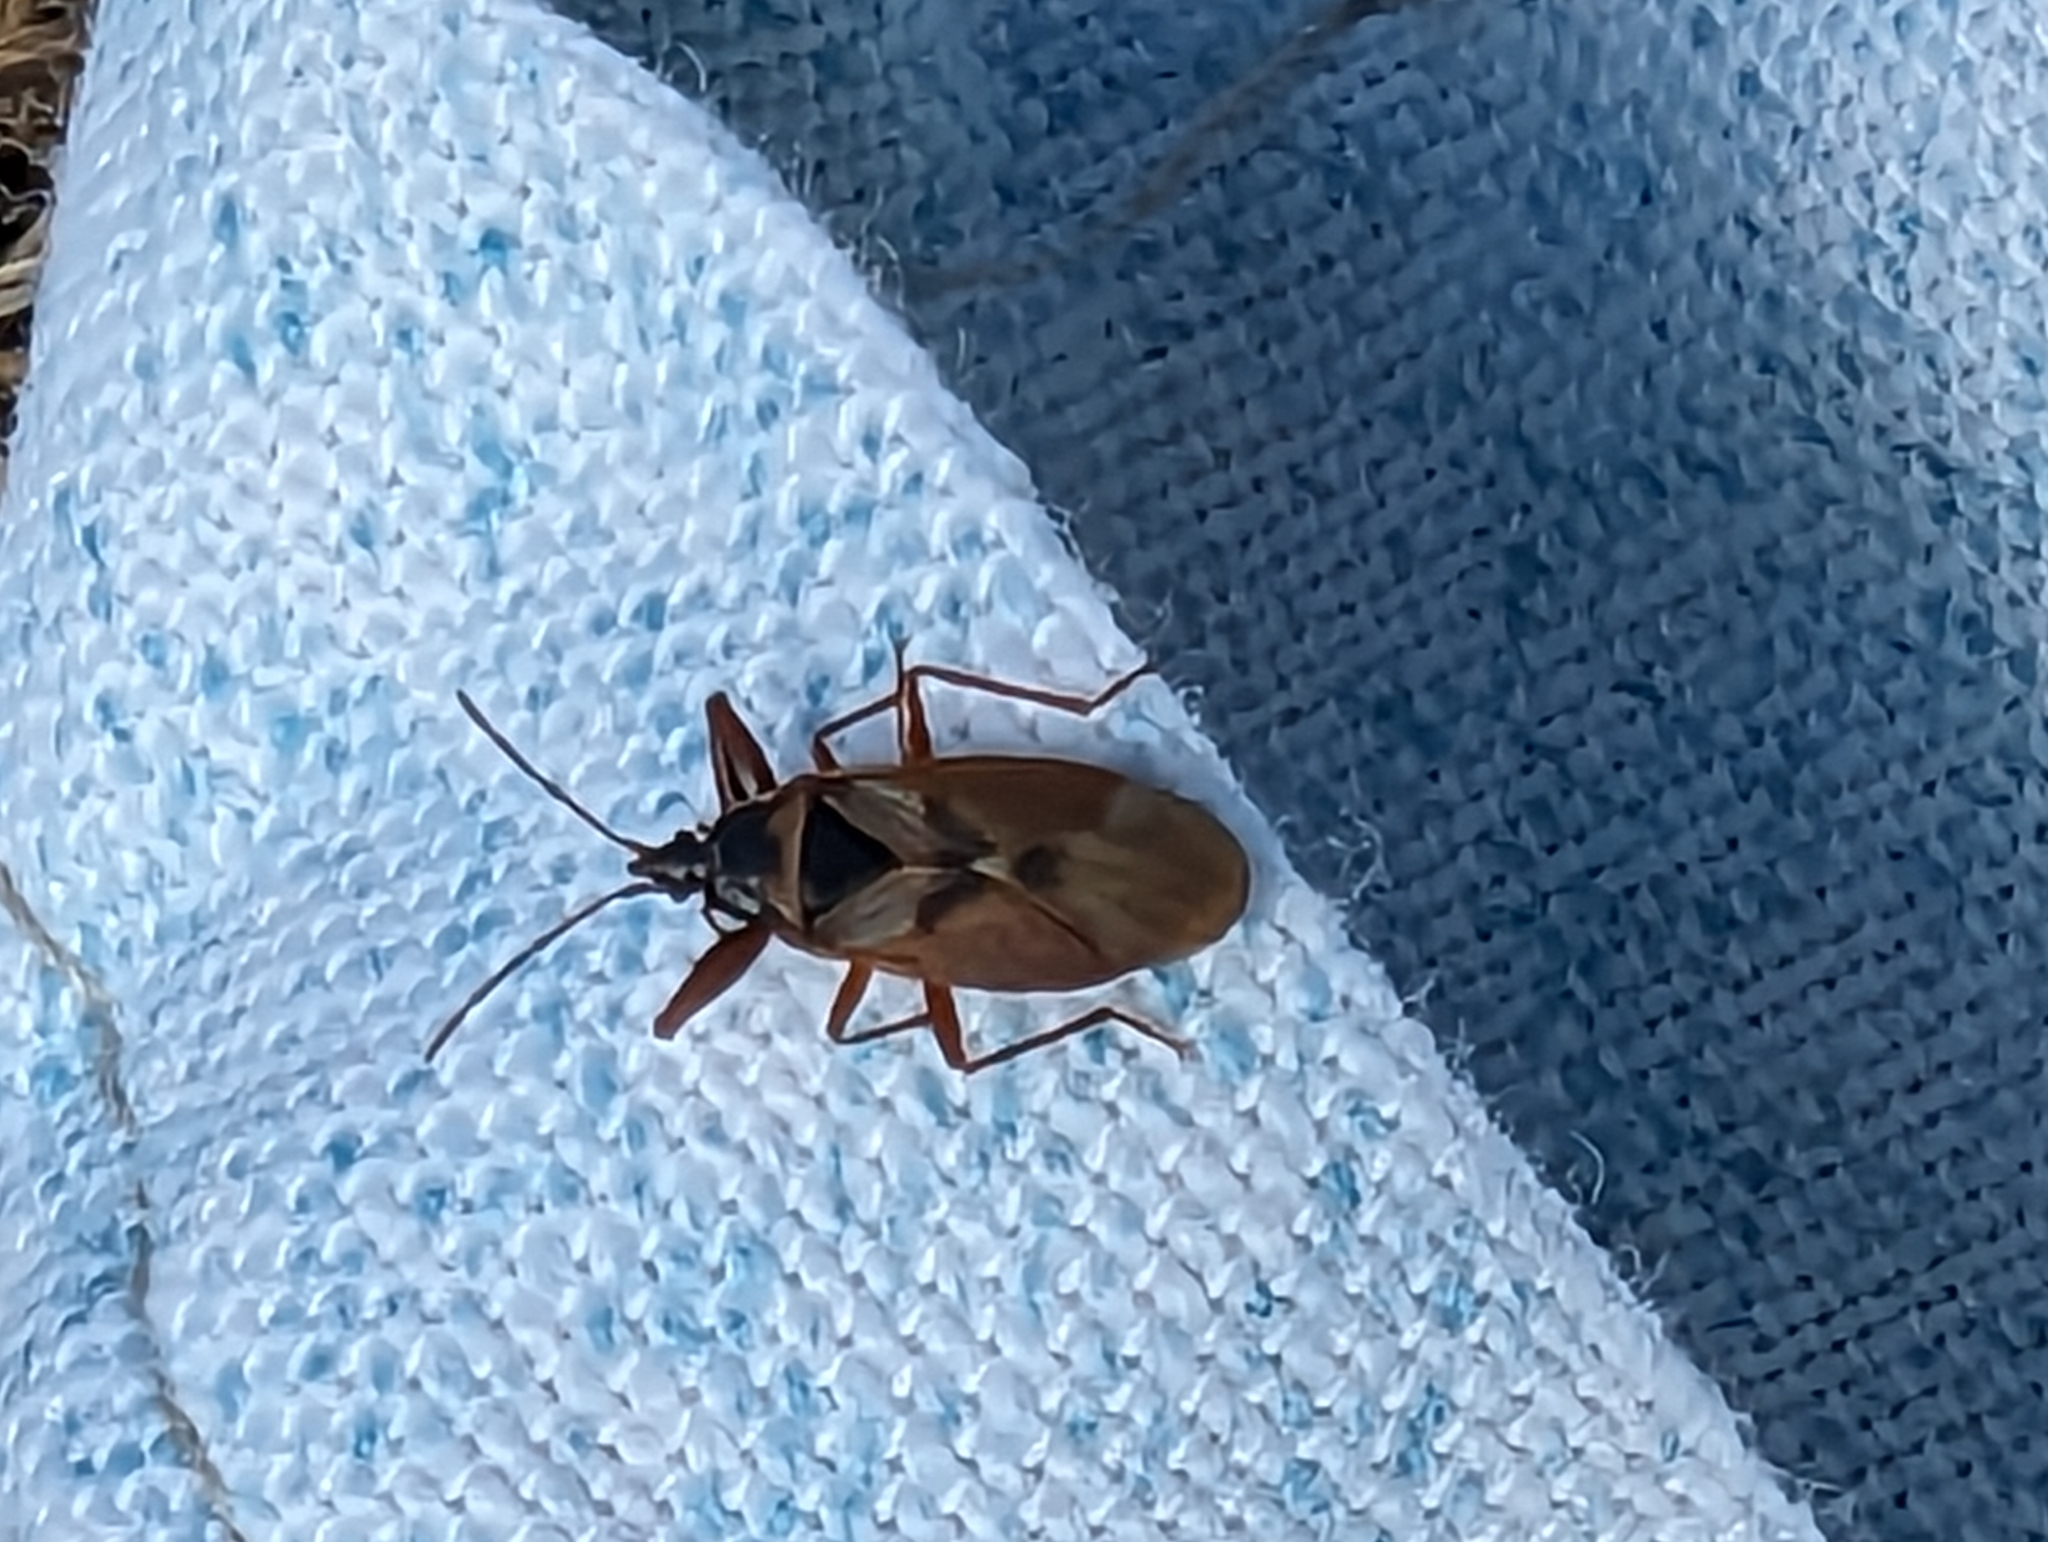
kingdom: Animalia
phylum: Arthropoda
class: Insecta
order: Hemiptera
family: Rhyparochromidae
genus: Gastrodes
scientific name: Gastrodes abietum
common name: Spruce cone bug
